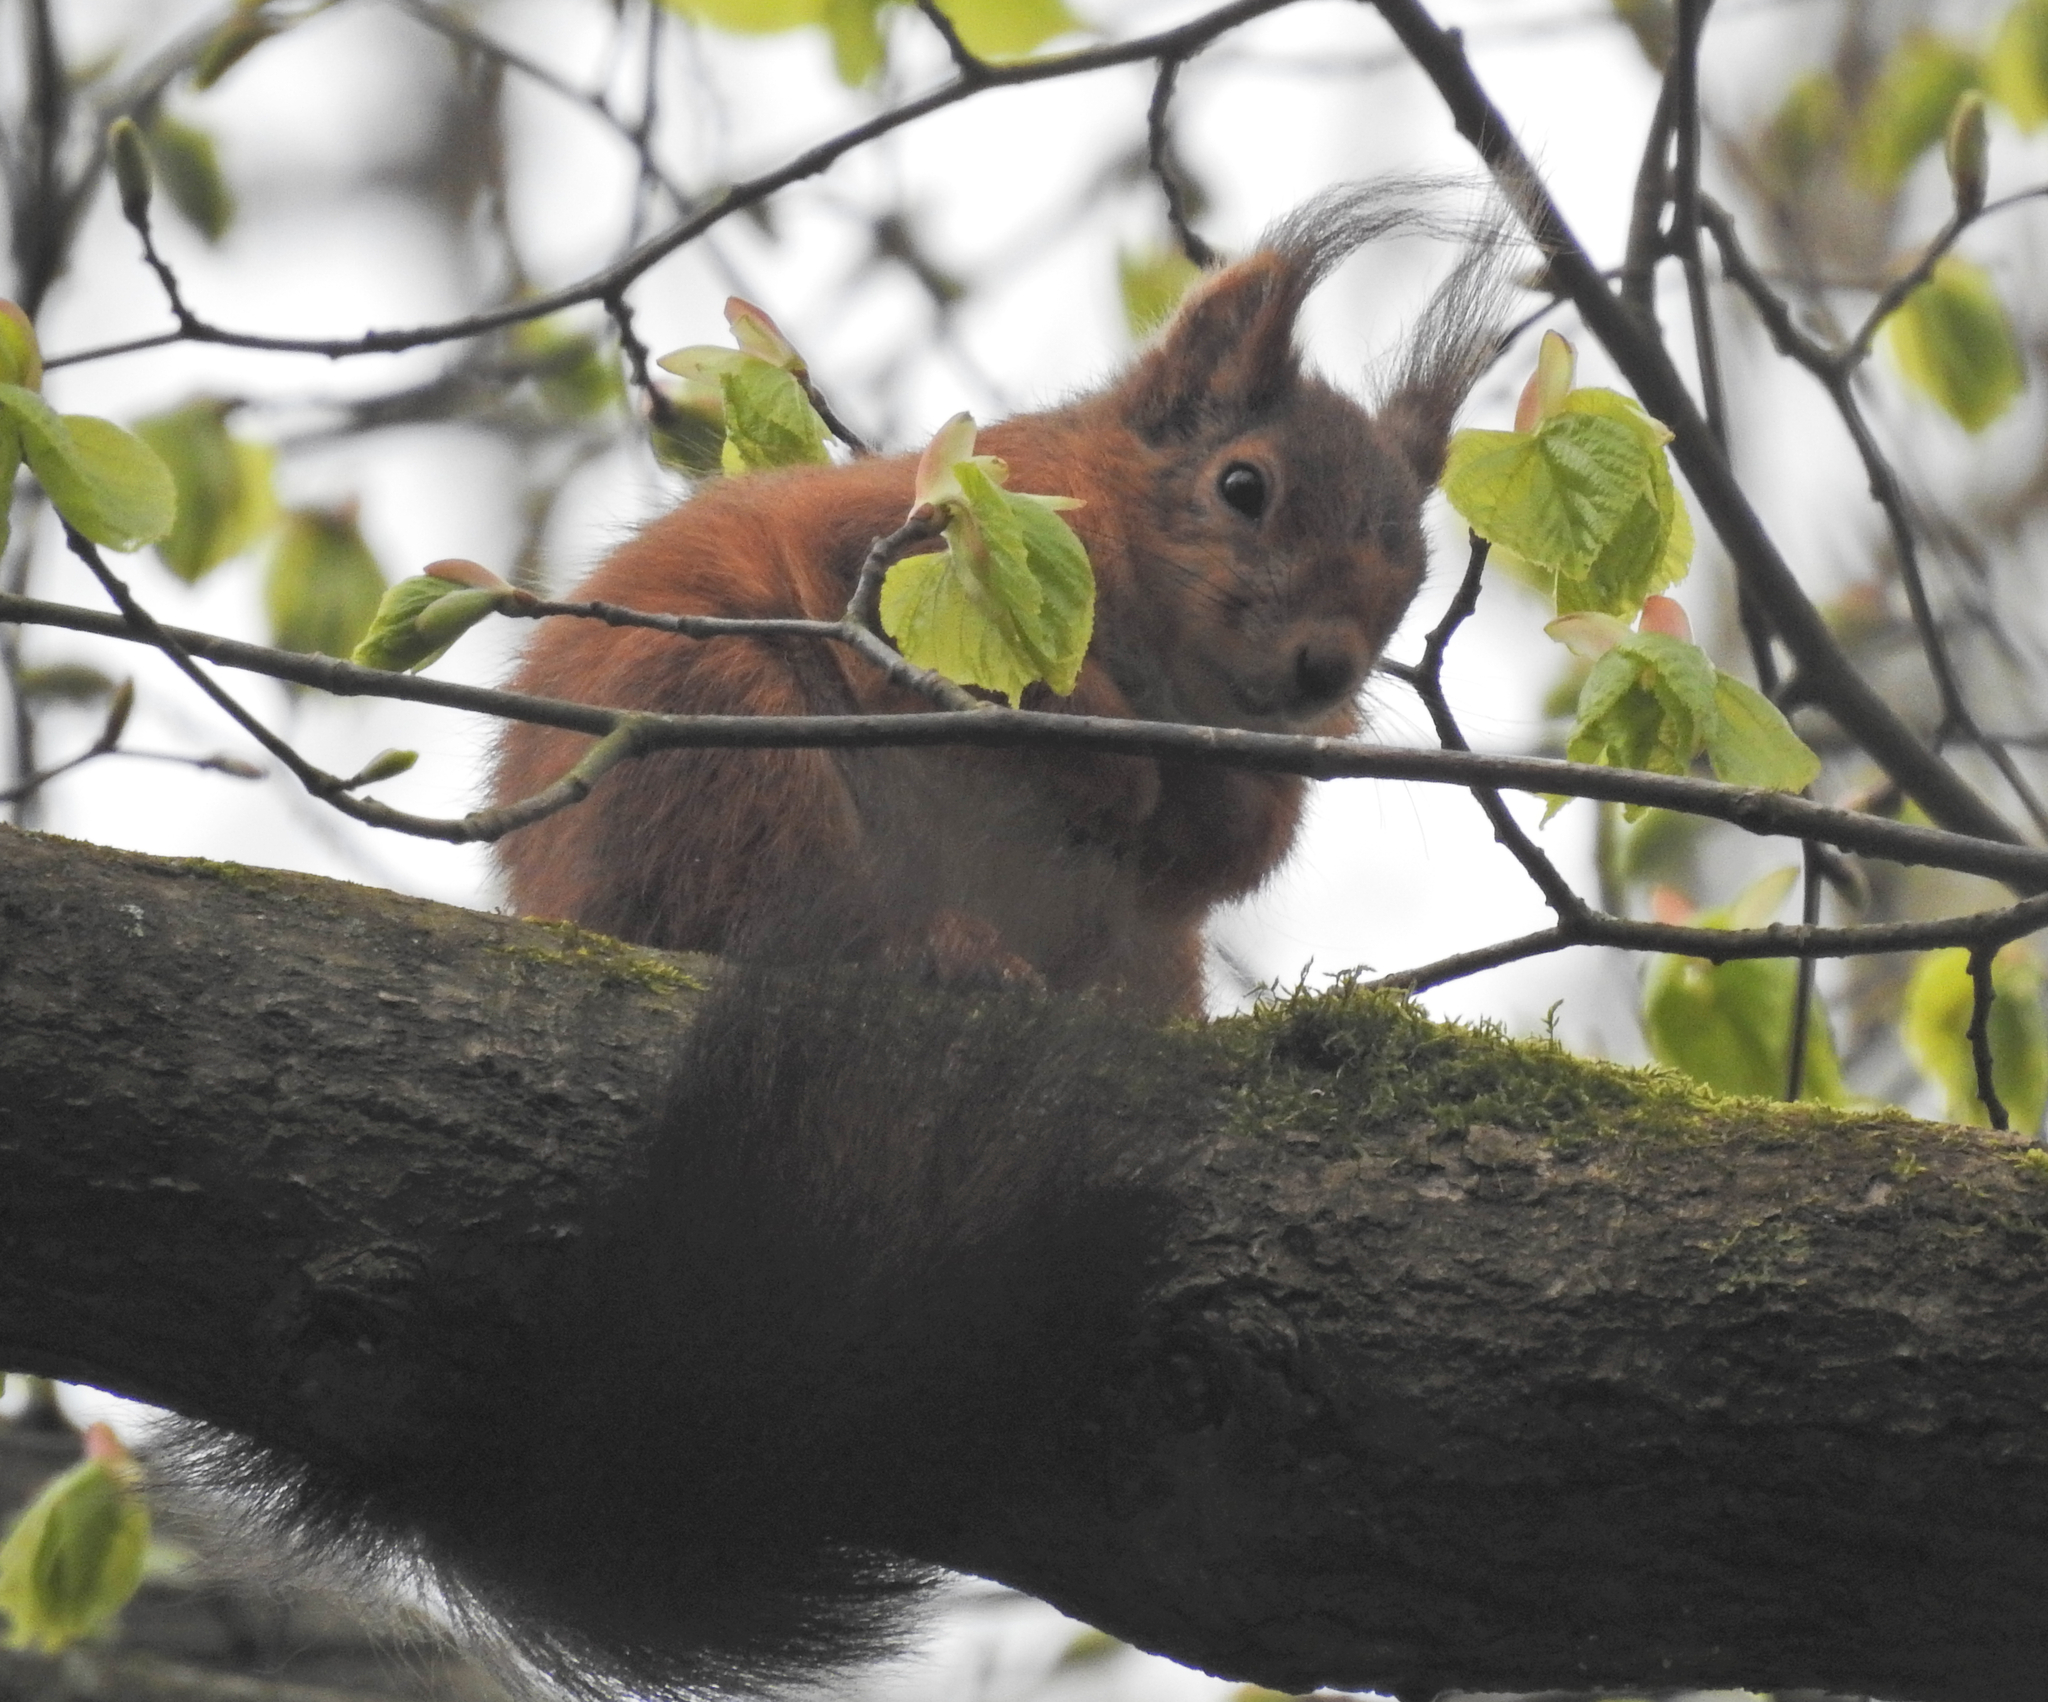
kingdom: Animalia
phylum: Chordata
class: Mammalia
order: Rodentia
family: Sciuridae
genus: Sciurus
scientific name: Sciurus vulgaris
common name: Eurasian red squirrel
